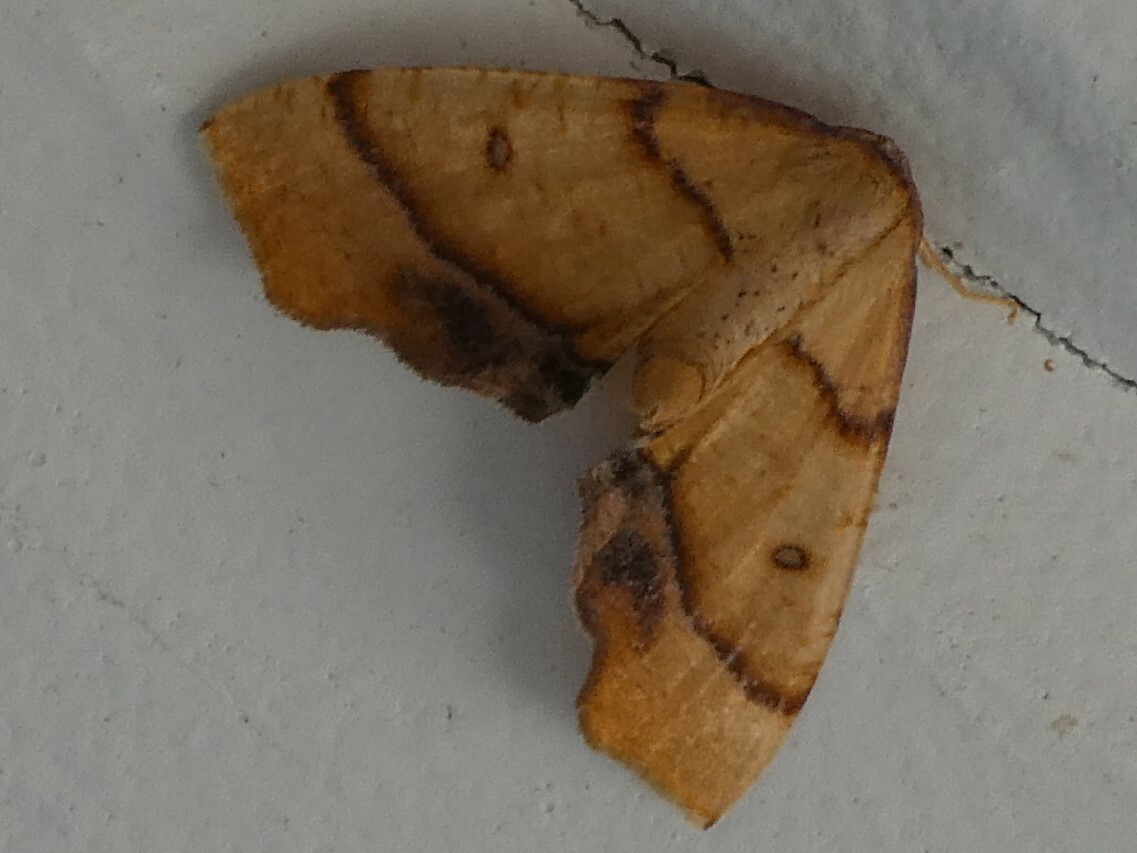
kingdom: Animalia
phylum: Arthropoda
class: Insecta
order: Lepidoptera
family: Geometridae
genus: Plagodis
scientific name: Plagodis phlogosaria
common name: Straight-lined plagodis
